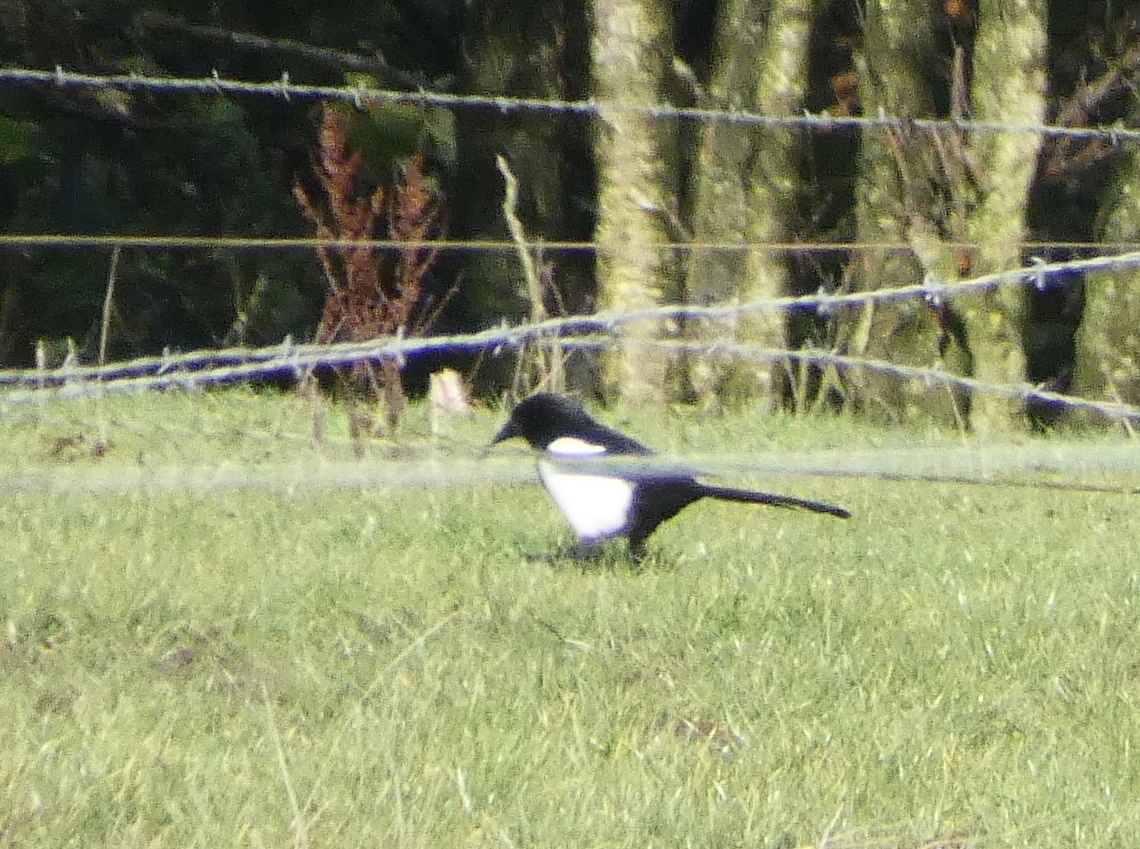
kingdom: Animalia
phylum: Chordata
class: Aves
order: Passeriformes
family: Corvidae
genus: Pica
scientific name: Pica pica
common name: Eurasian magpie
